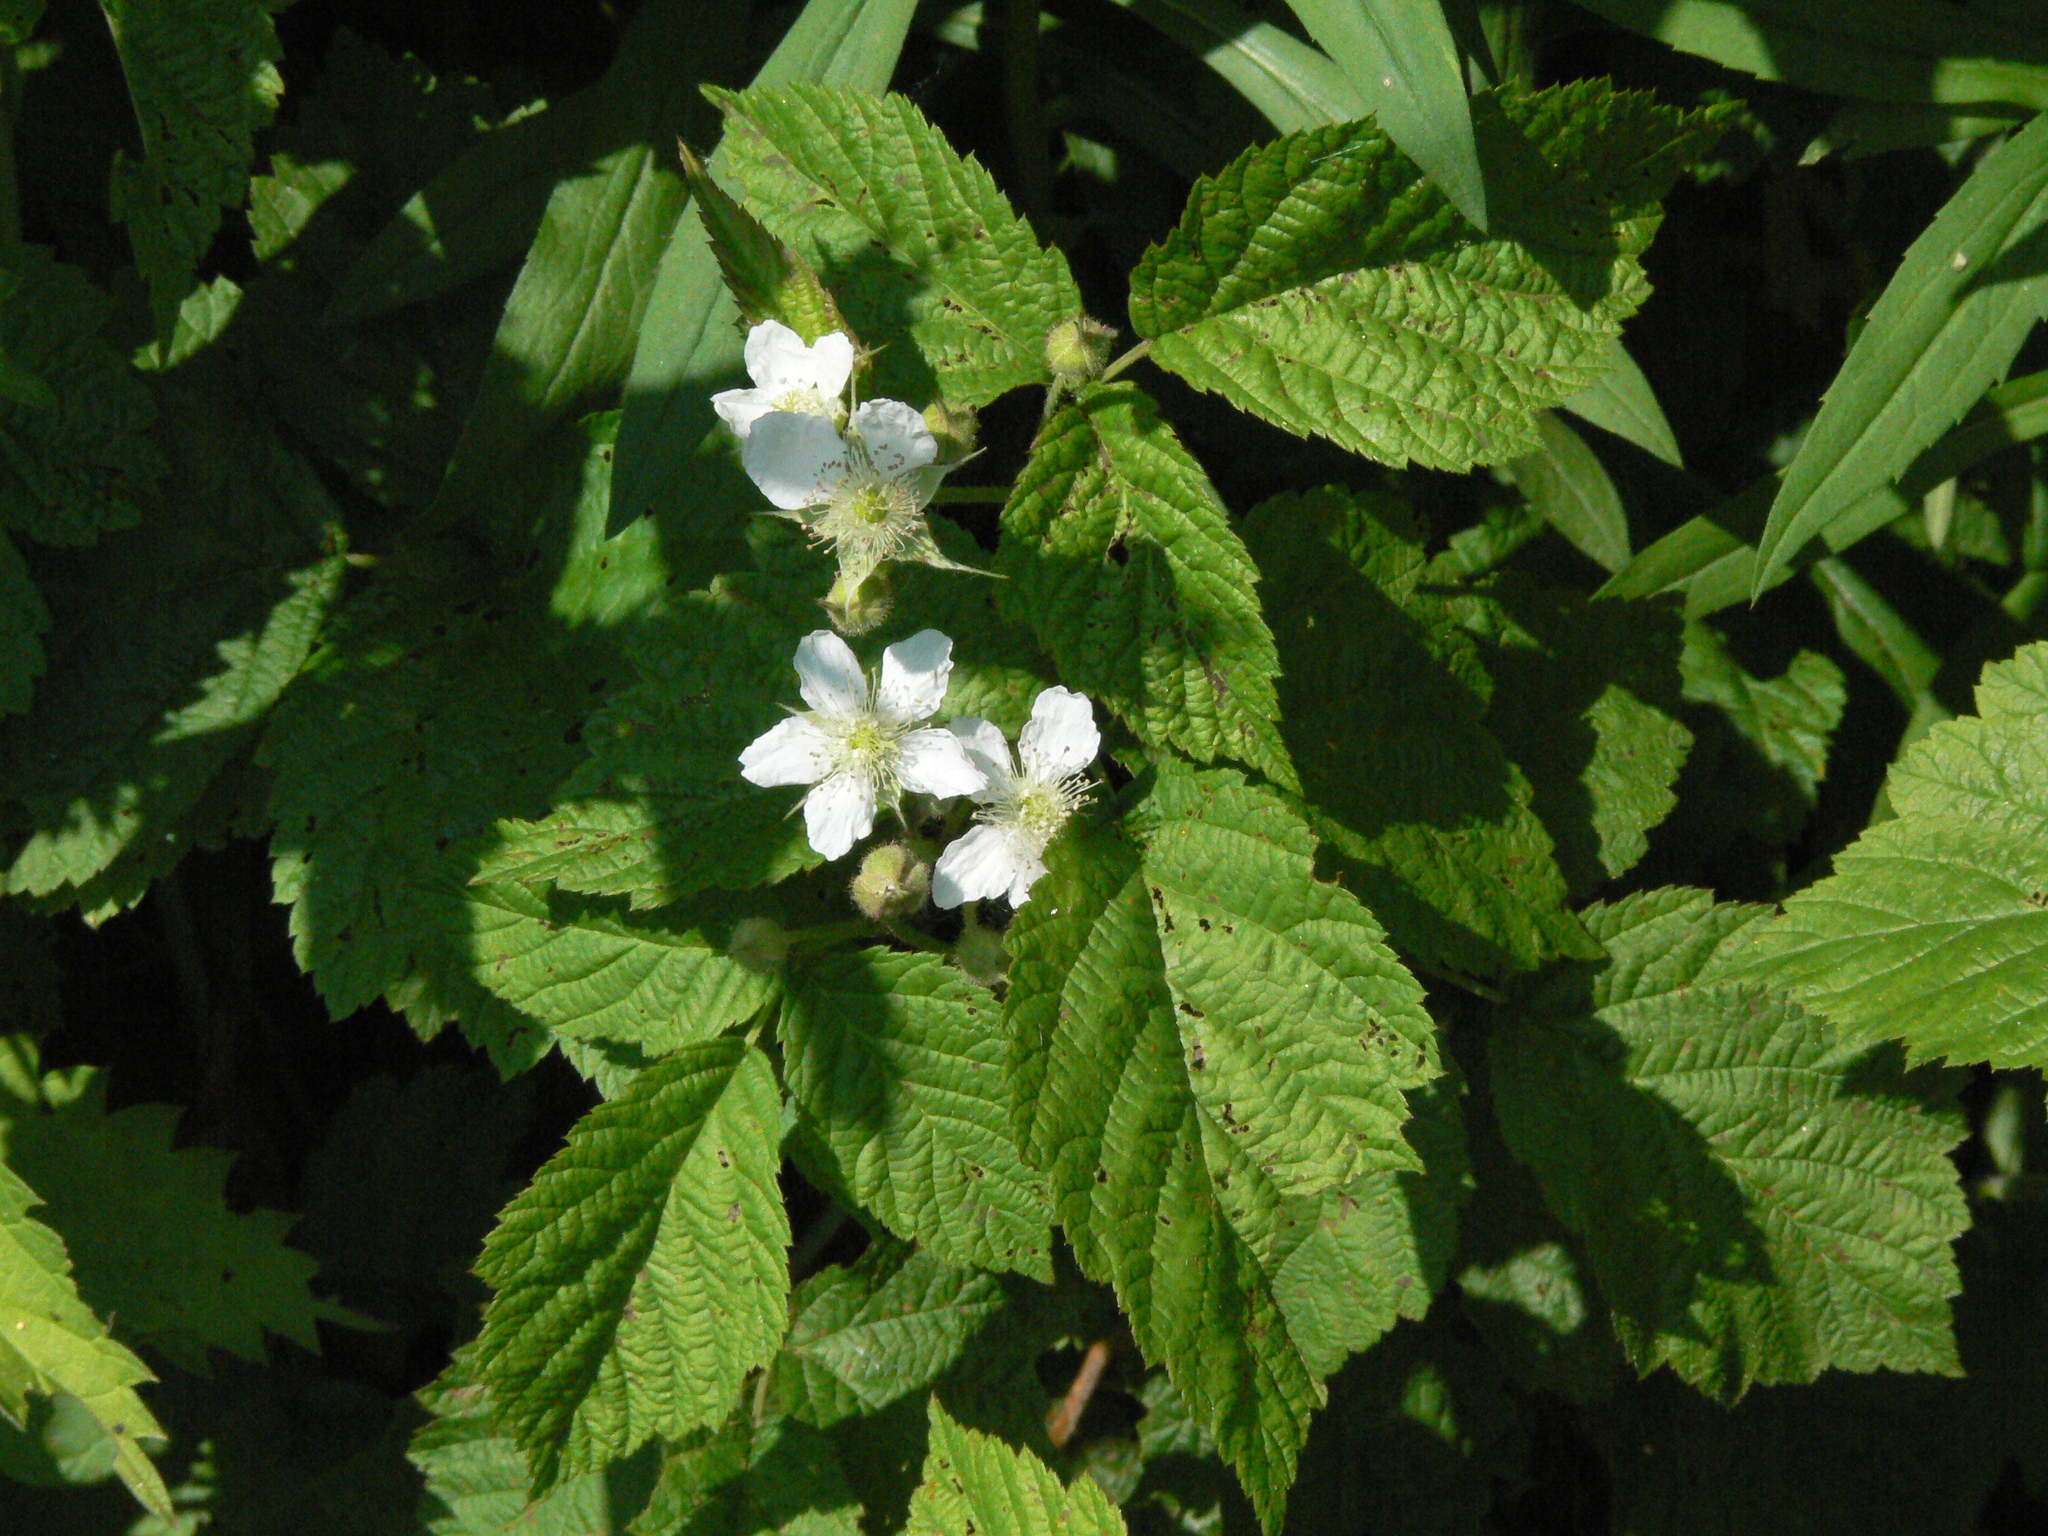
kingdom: Plantae
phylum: Tracheophyta
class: Magnoliopsida
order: Rosales
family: Rosaceae
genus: Rubus
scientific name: Rubus caesius
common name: Dewberry
